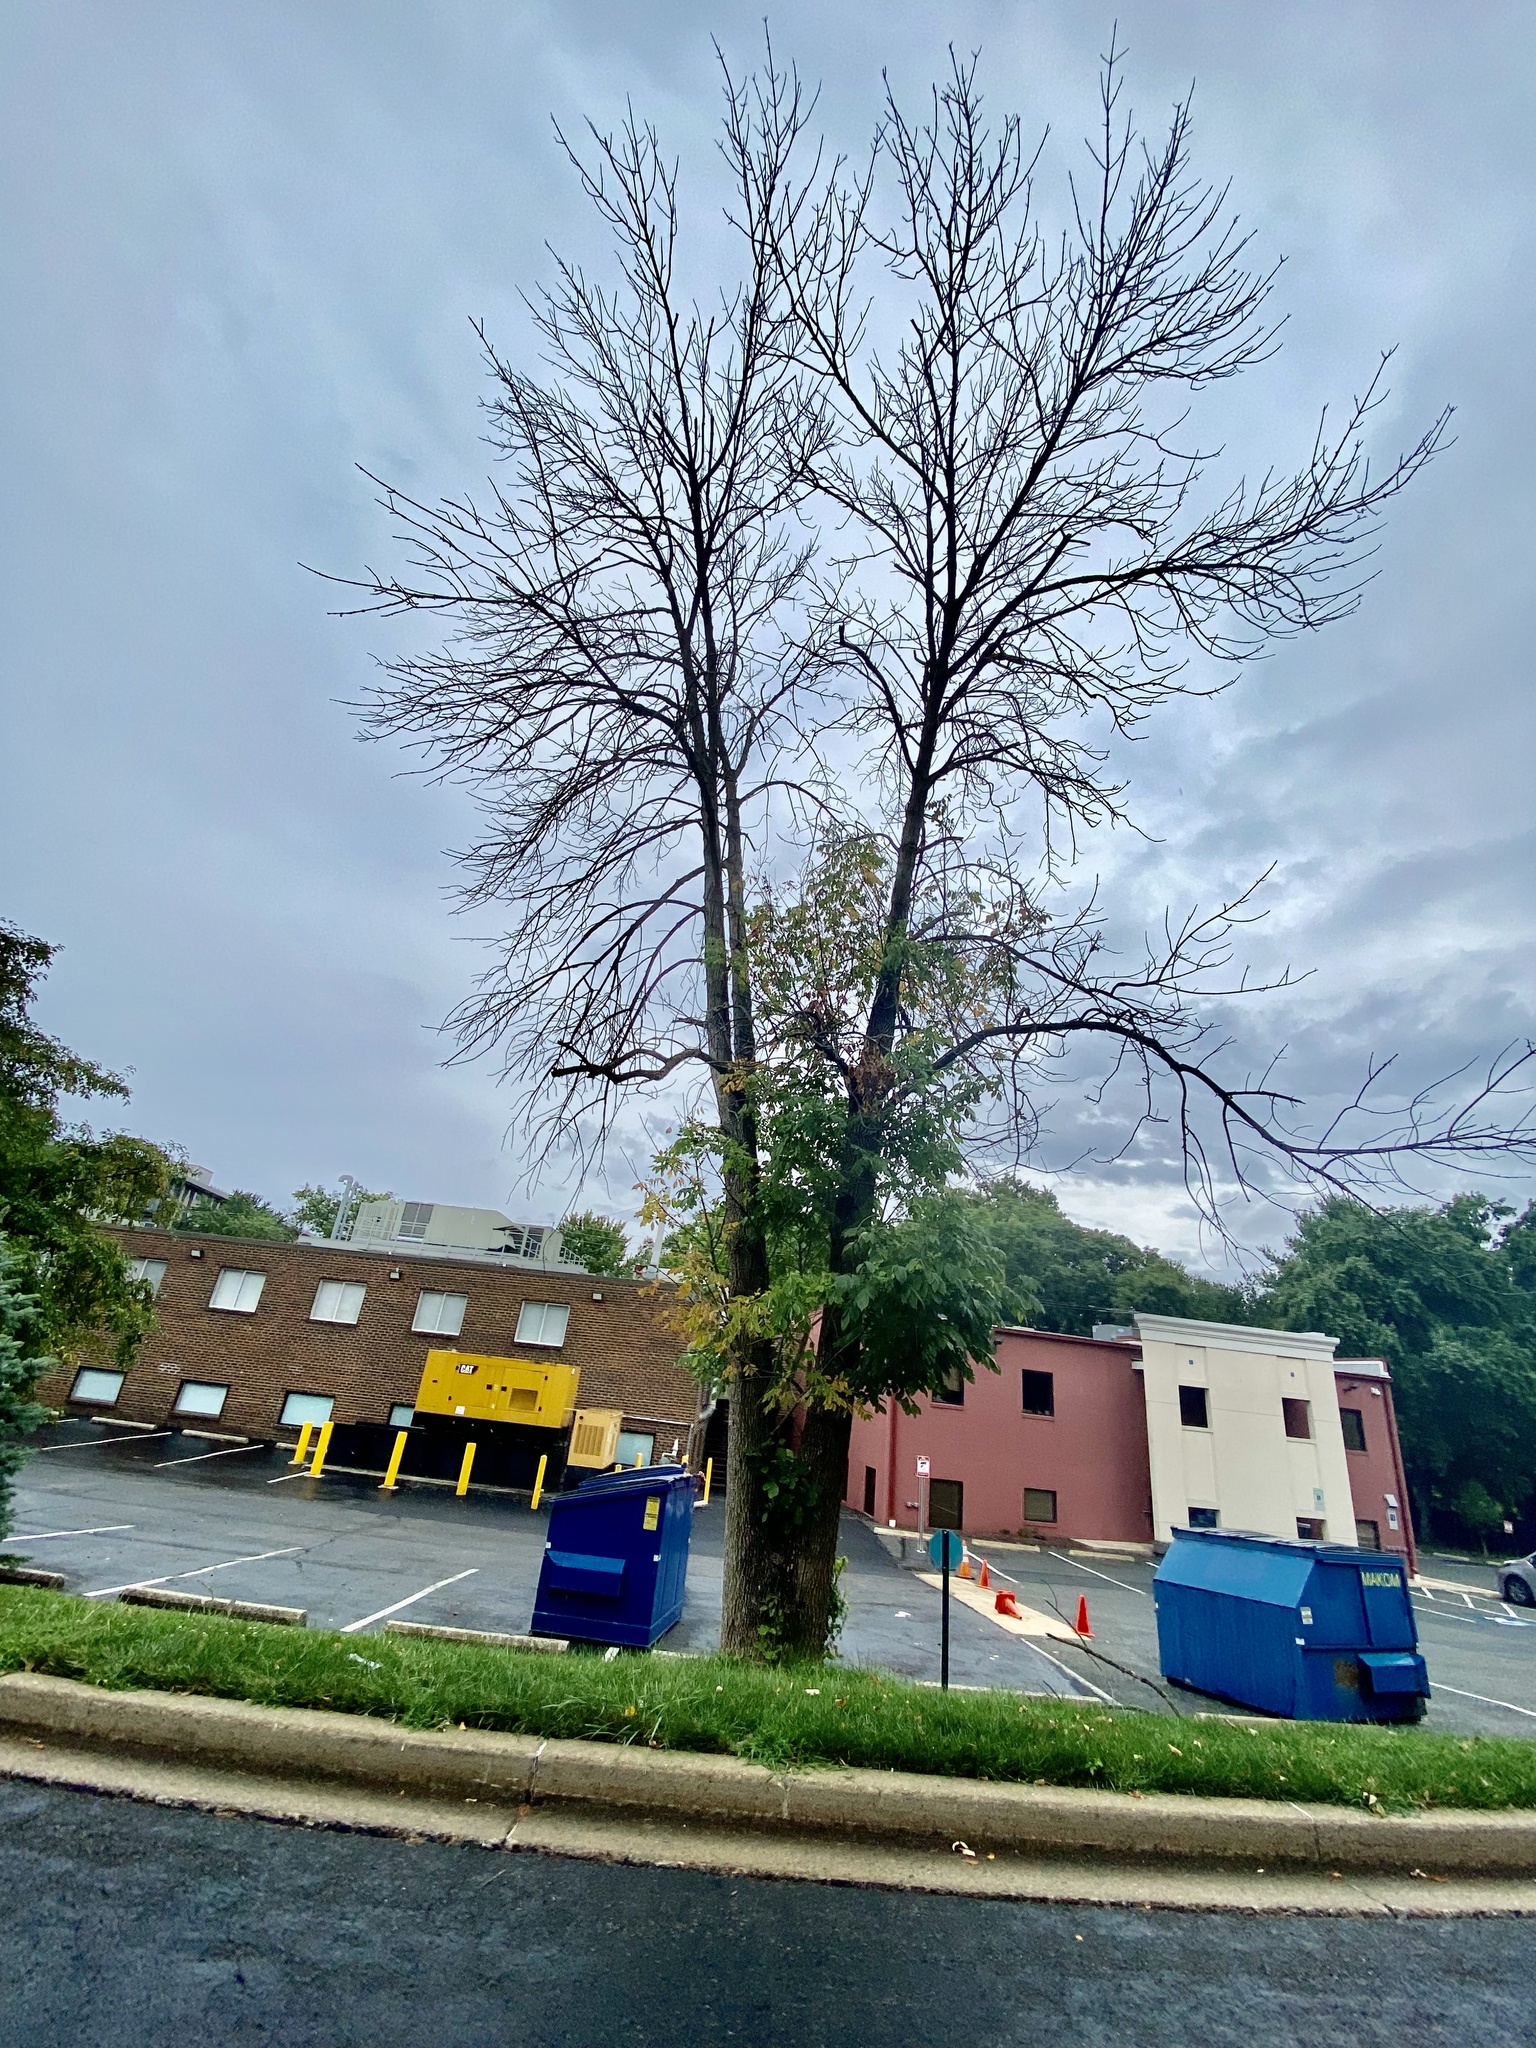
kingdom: Animalia
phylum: Arthropoda
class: Insecta
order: Coleoptera
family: Buprestidae
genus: Agrilus
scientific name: Agrilus planipennis
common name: Emerald ash borer
